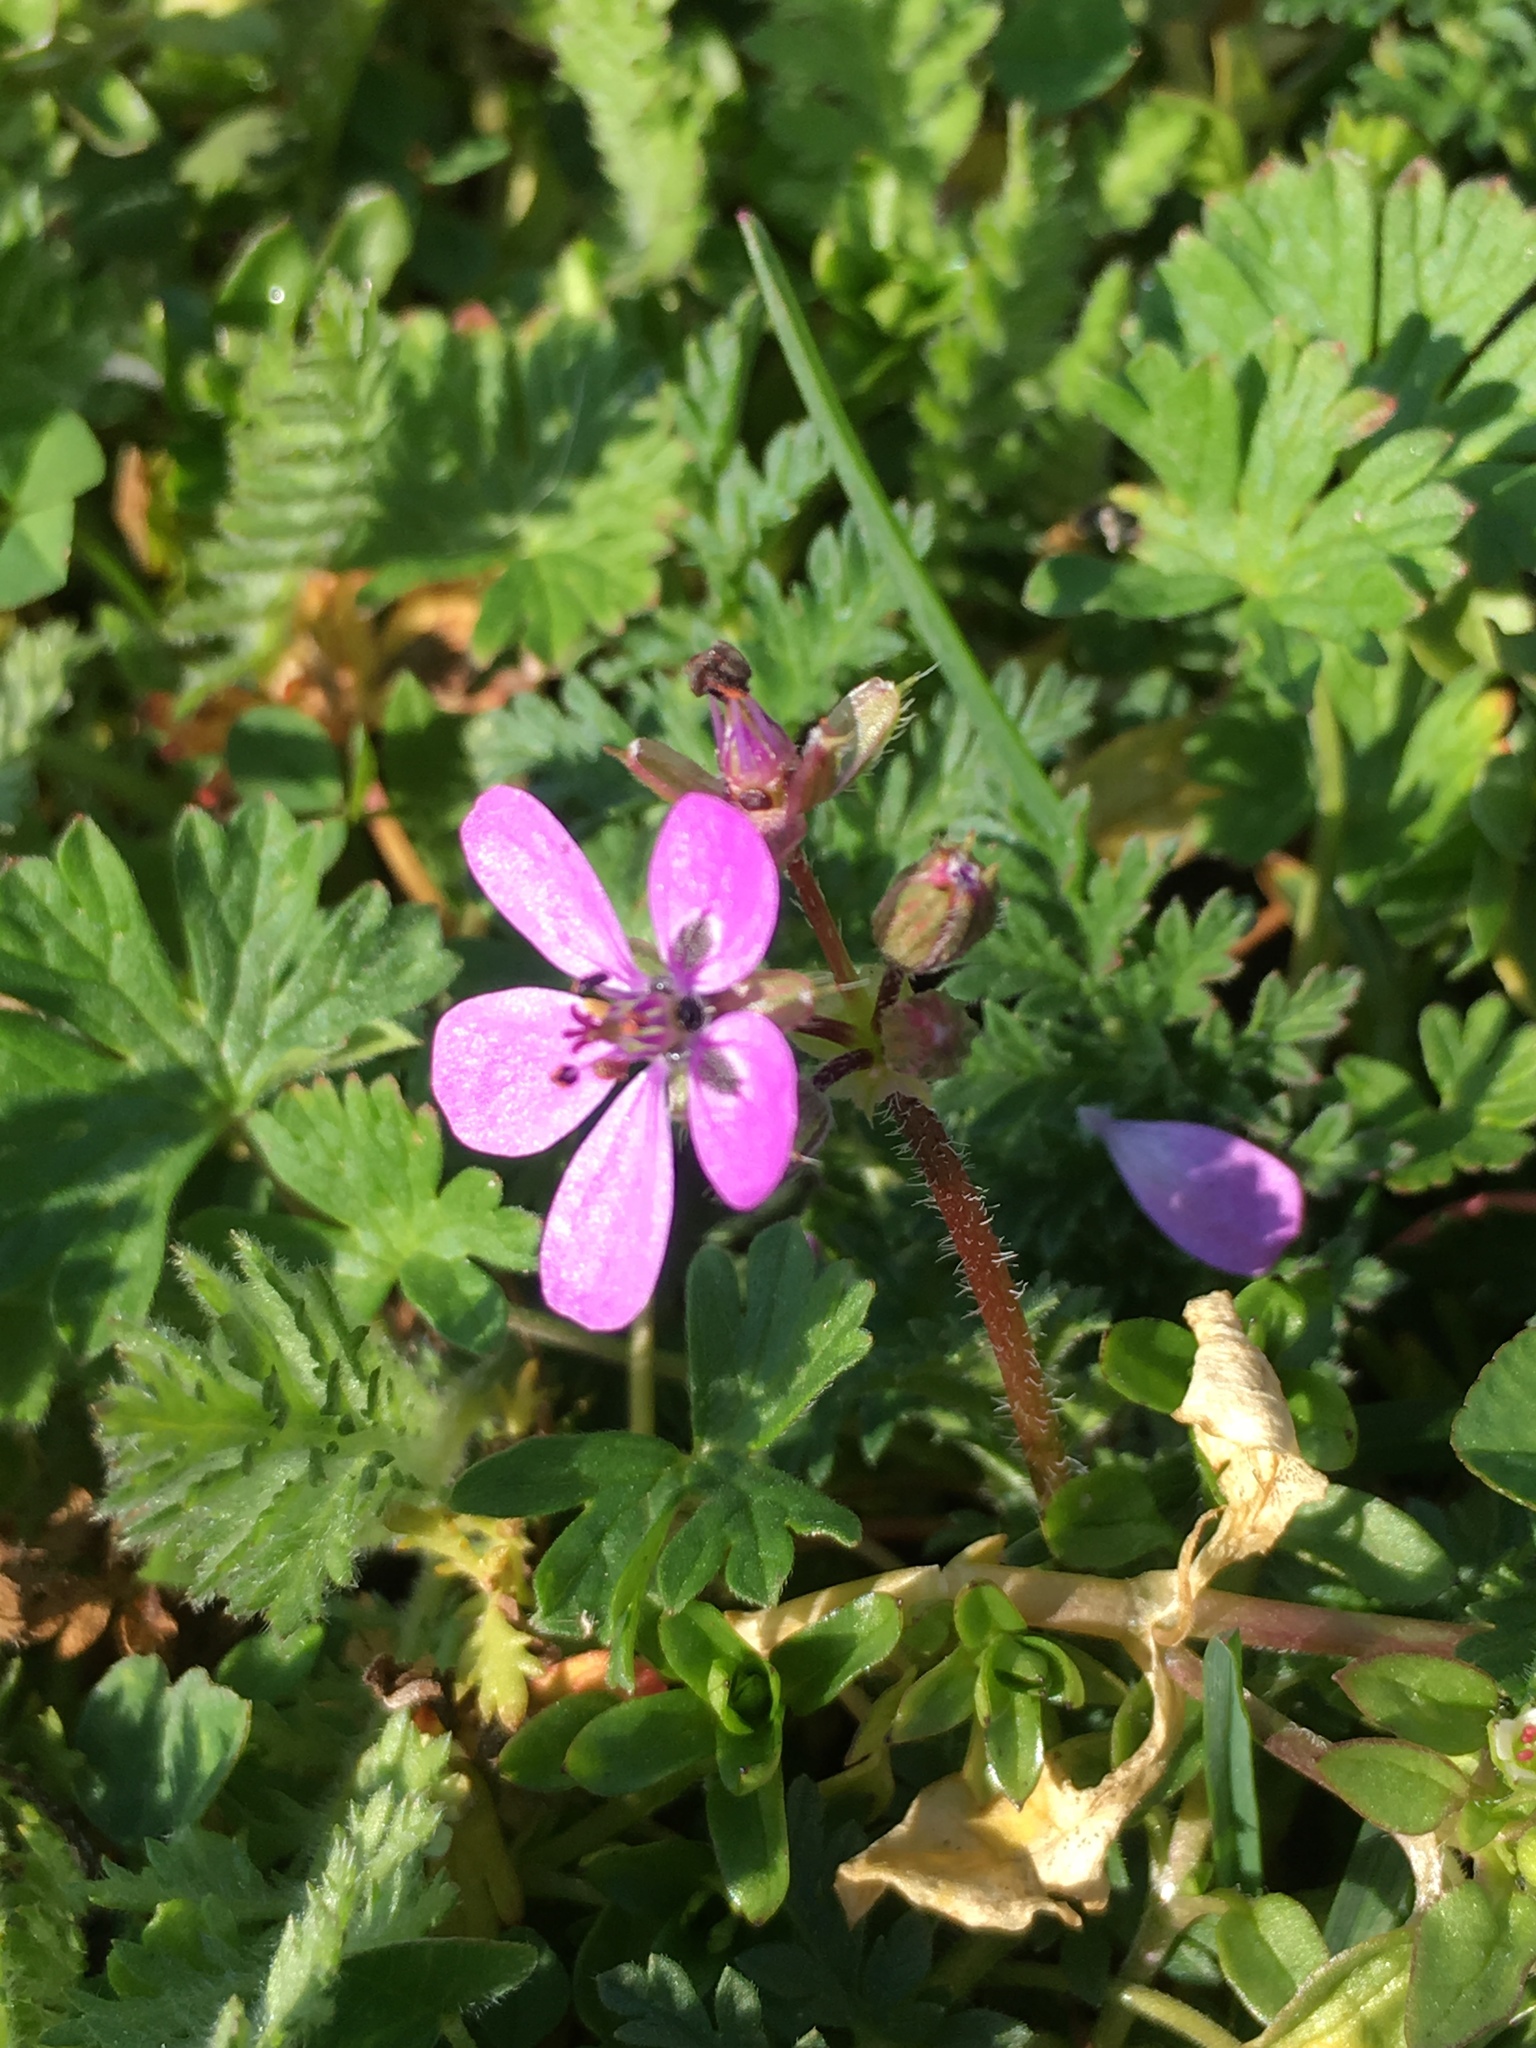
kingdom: Plantae
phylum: Tracheophyta
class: Magnoliopsida
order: Geraniales
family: Geraniaceae
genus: Erodium
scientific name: Erodium cicutarium
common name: Common stork's-bill
